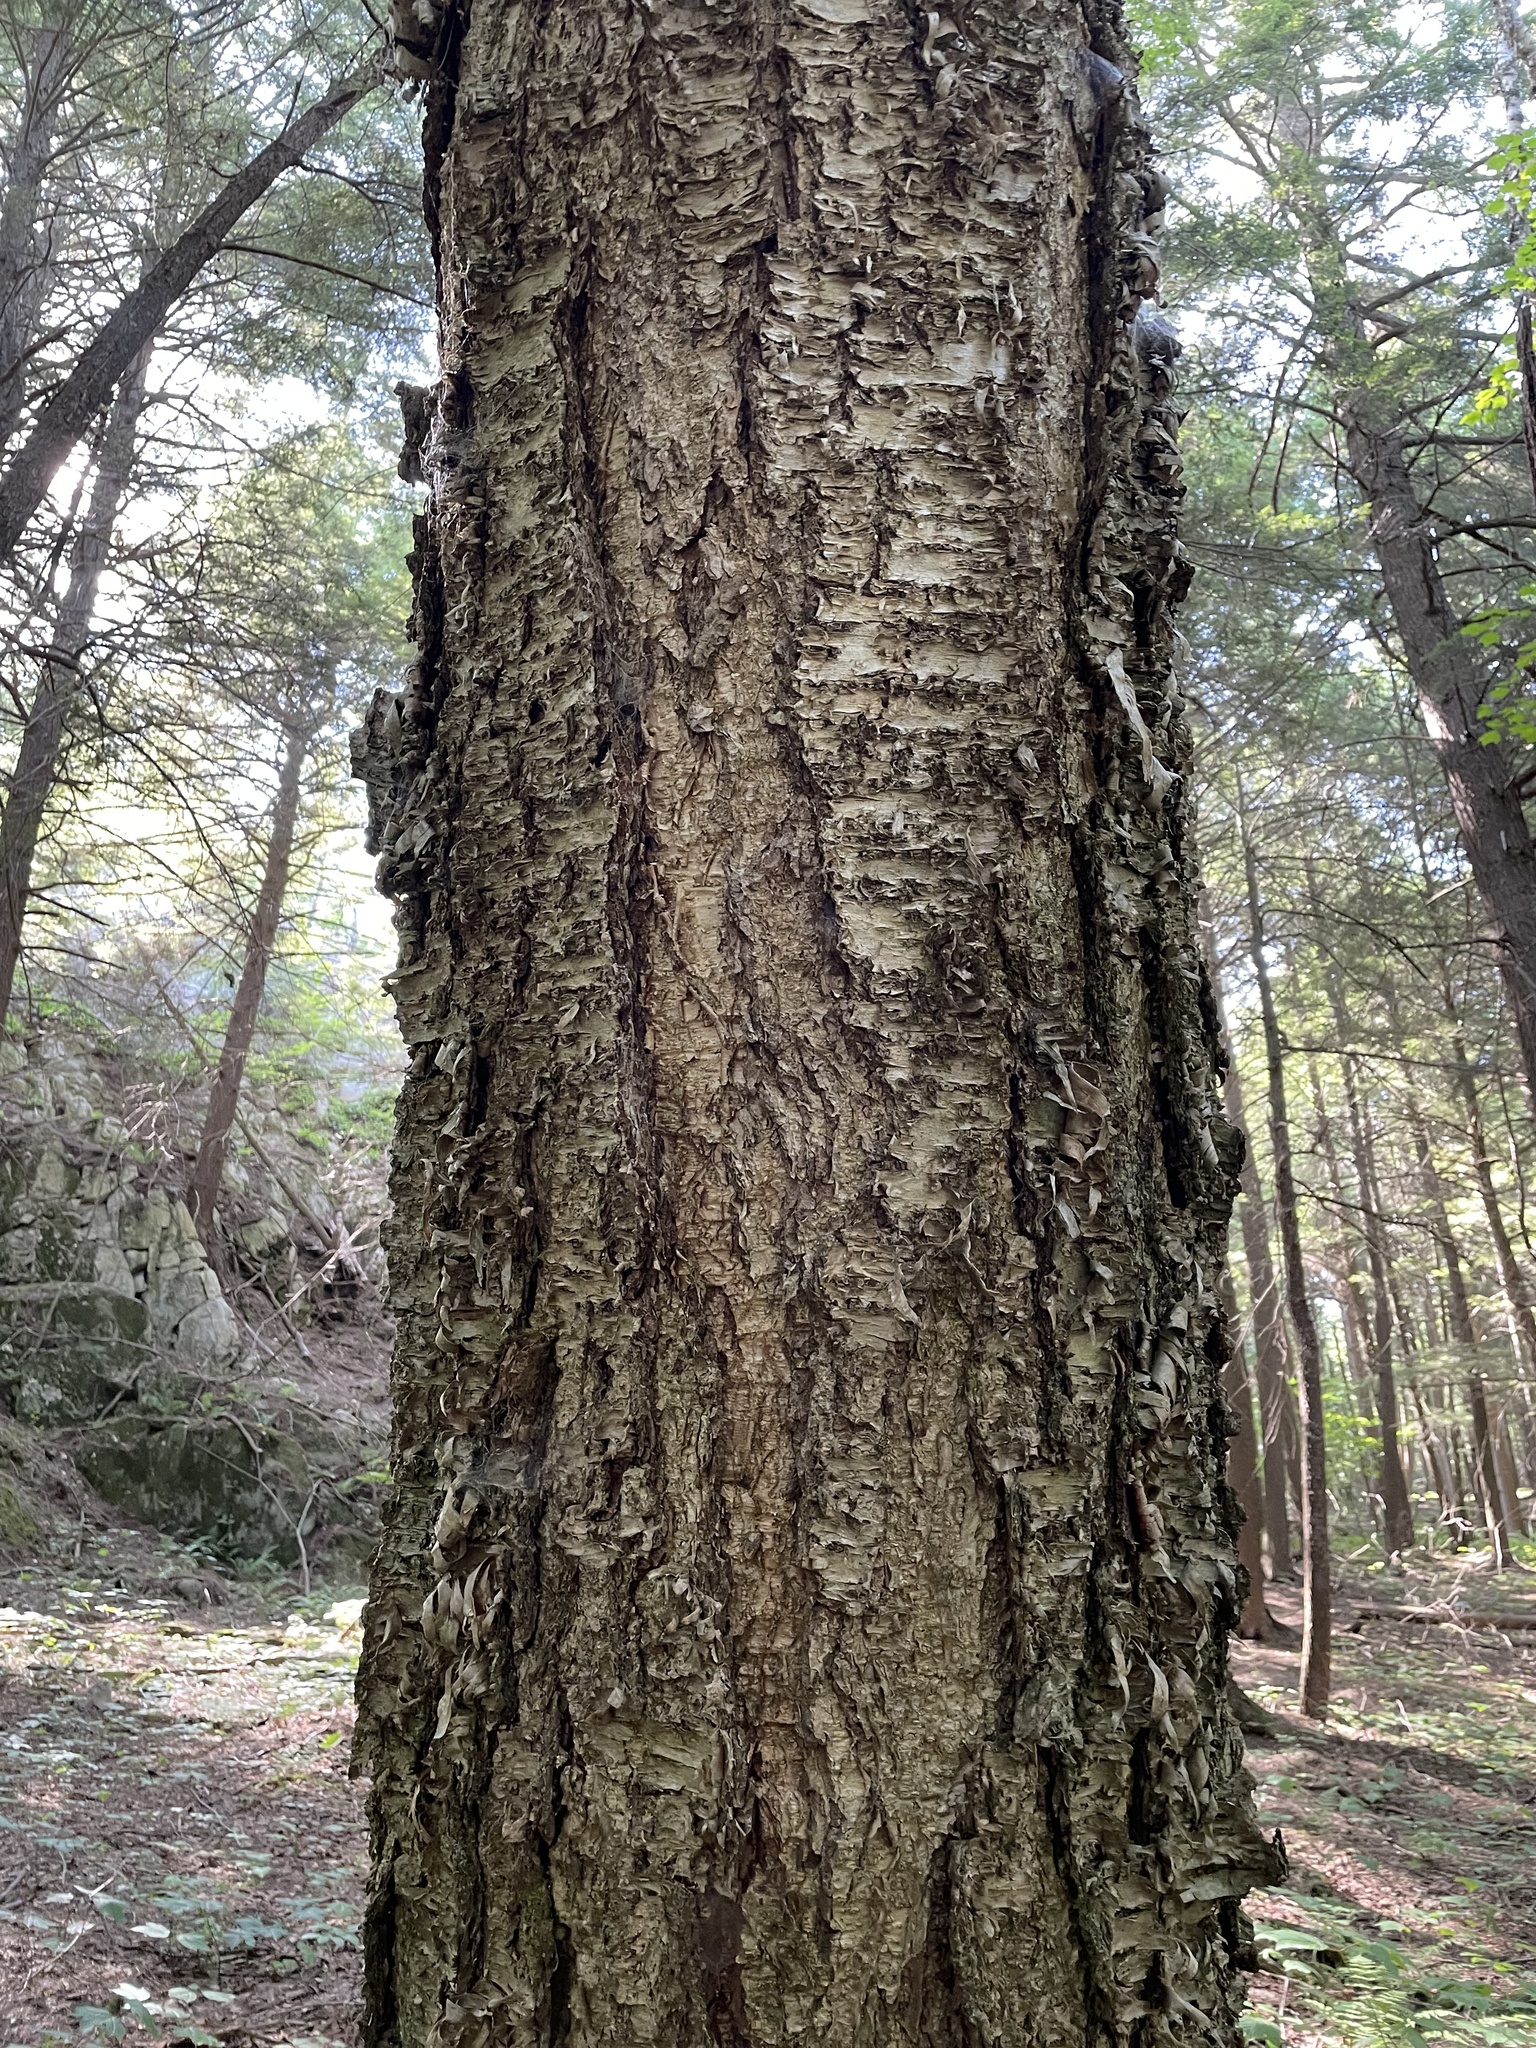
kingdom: Plantae
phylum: Tracheophyta
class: Magnoliopsida
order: Fagales
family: Betulaceae
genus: Betula
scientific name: Betula alleghaniensis
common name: Yellow birch
